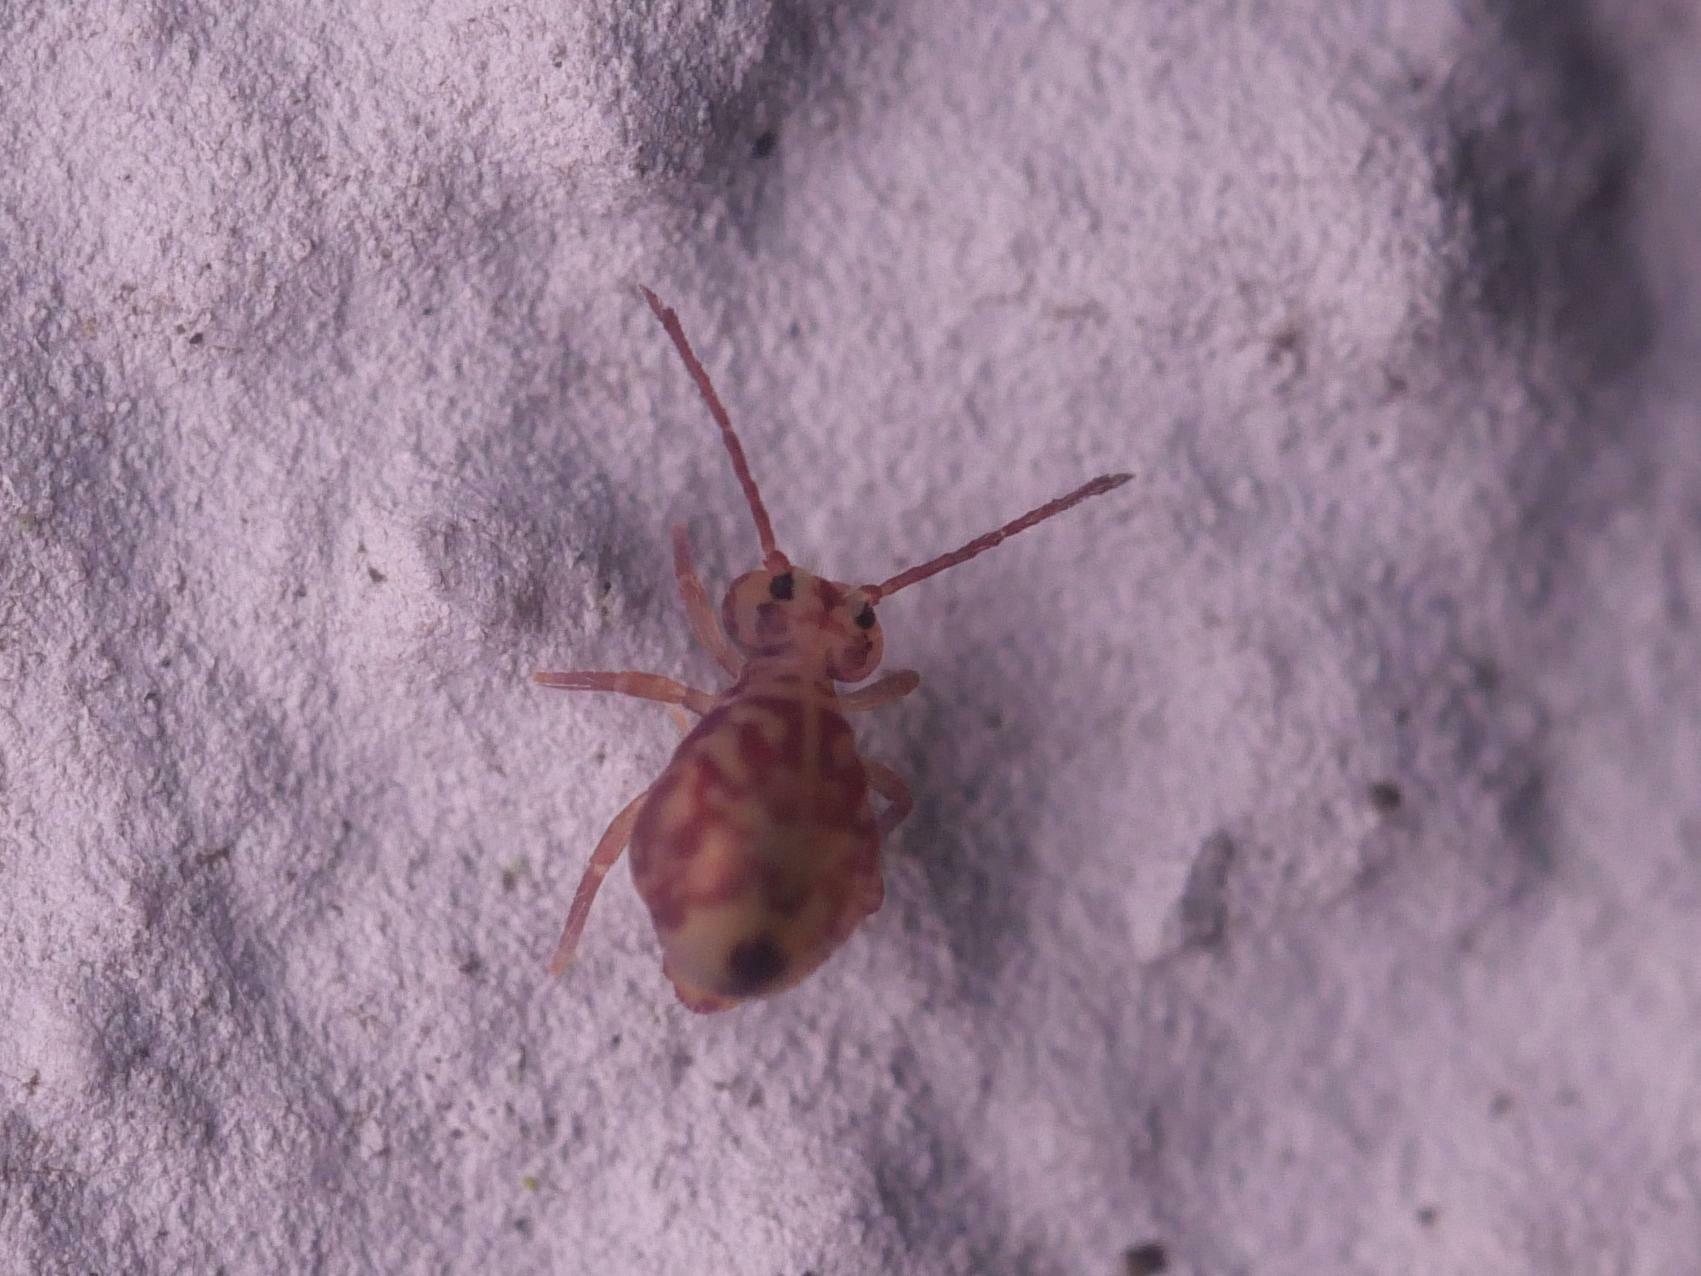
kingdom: Animalia
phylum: Arthropoda
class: Collembola
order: Symphypleona
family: Dicyrtomidae
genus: Dicyrtomina
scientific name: Dicyrtomina ornata
